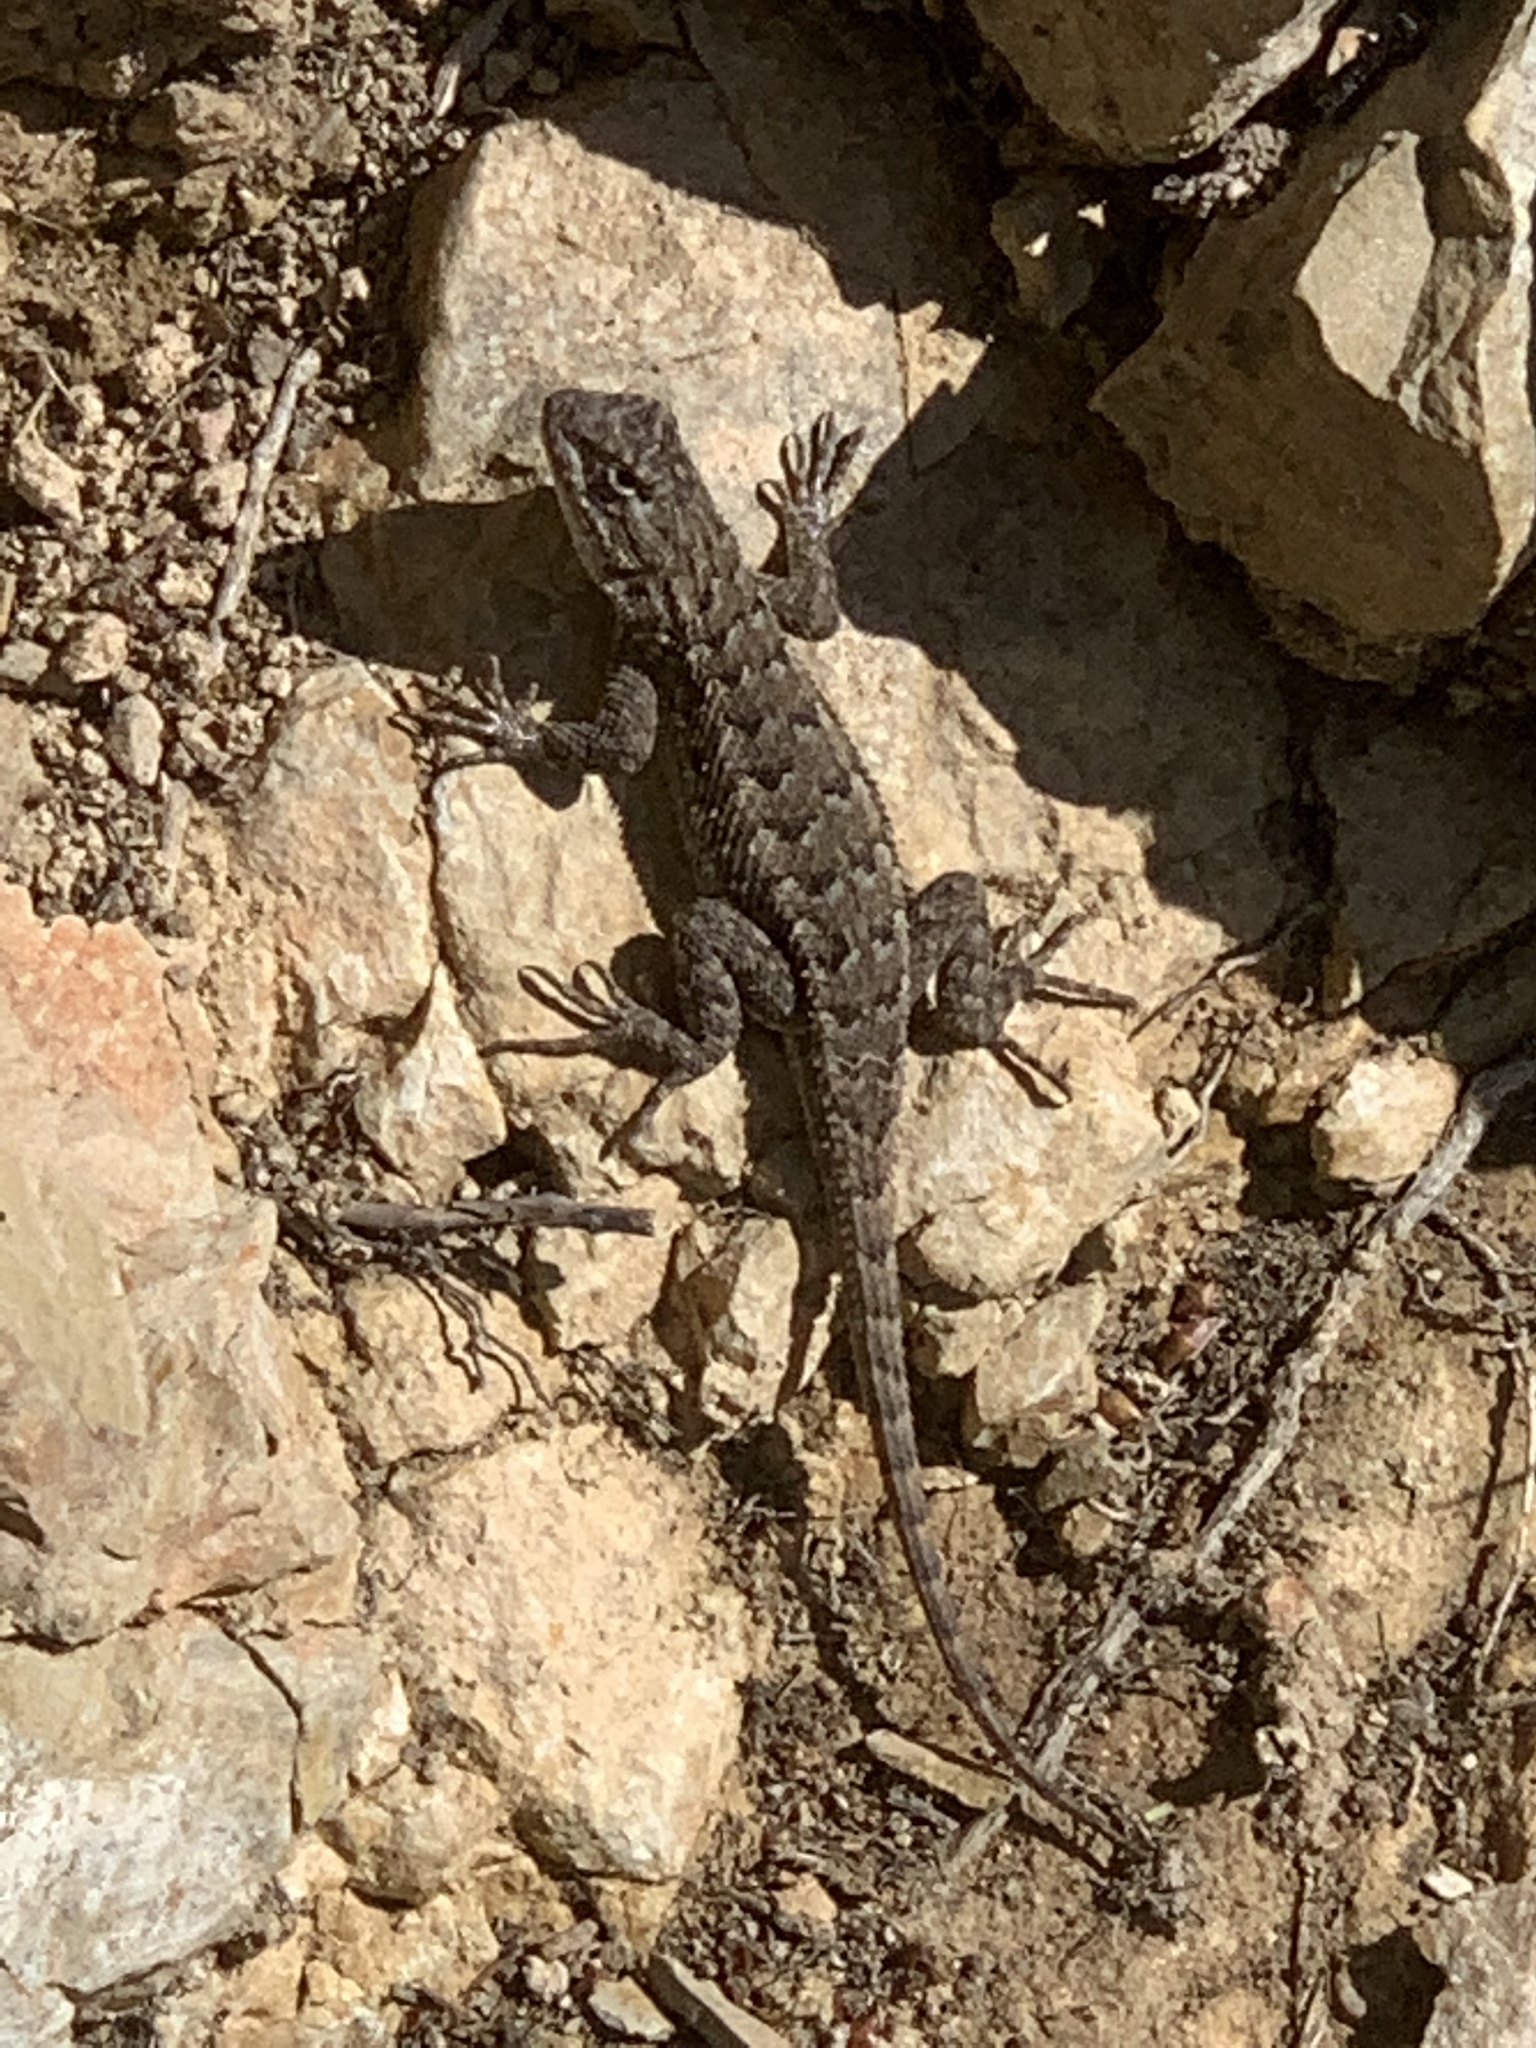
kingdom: Animalia
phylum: Chordata
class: Squamata
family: Phrynosomatidae
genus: Sceloporus
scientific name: Sceloporus occidentalis
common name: Western fence lizard
